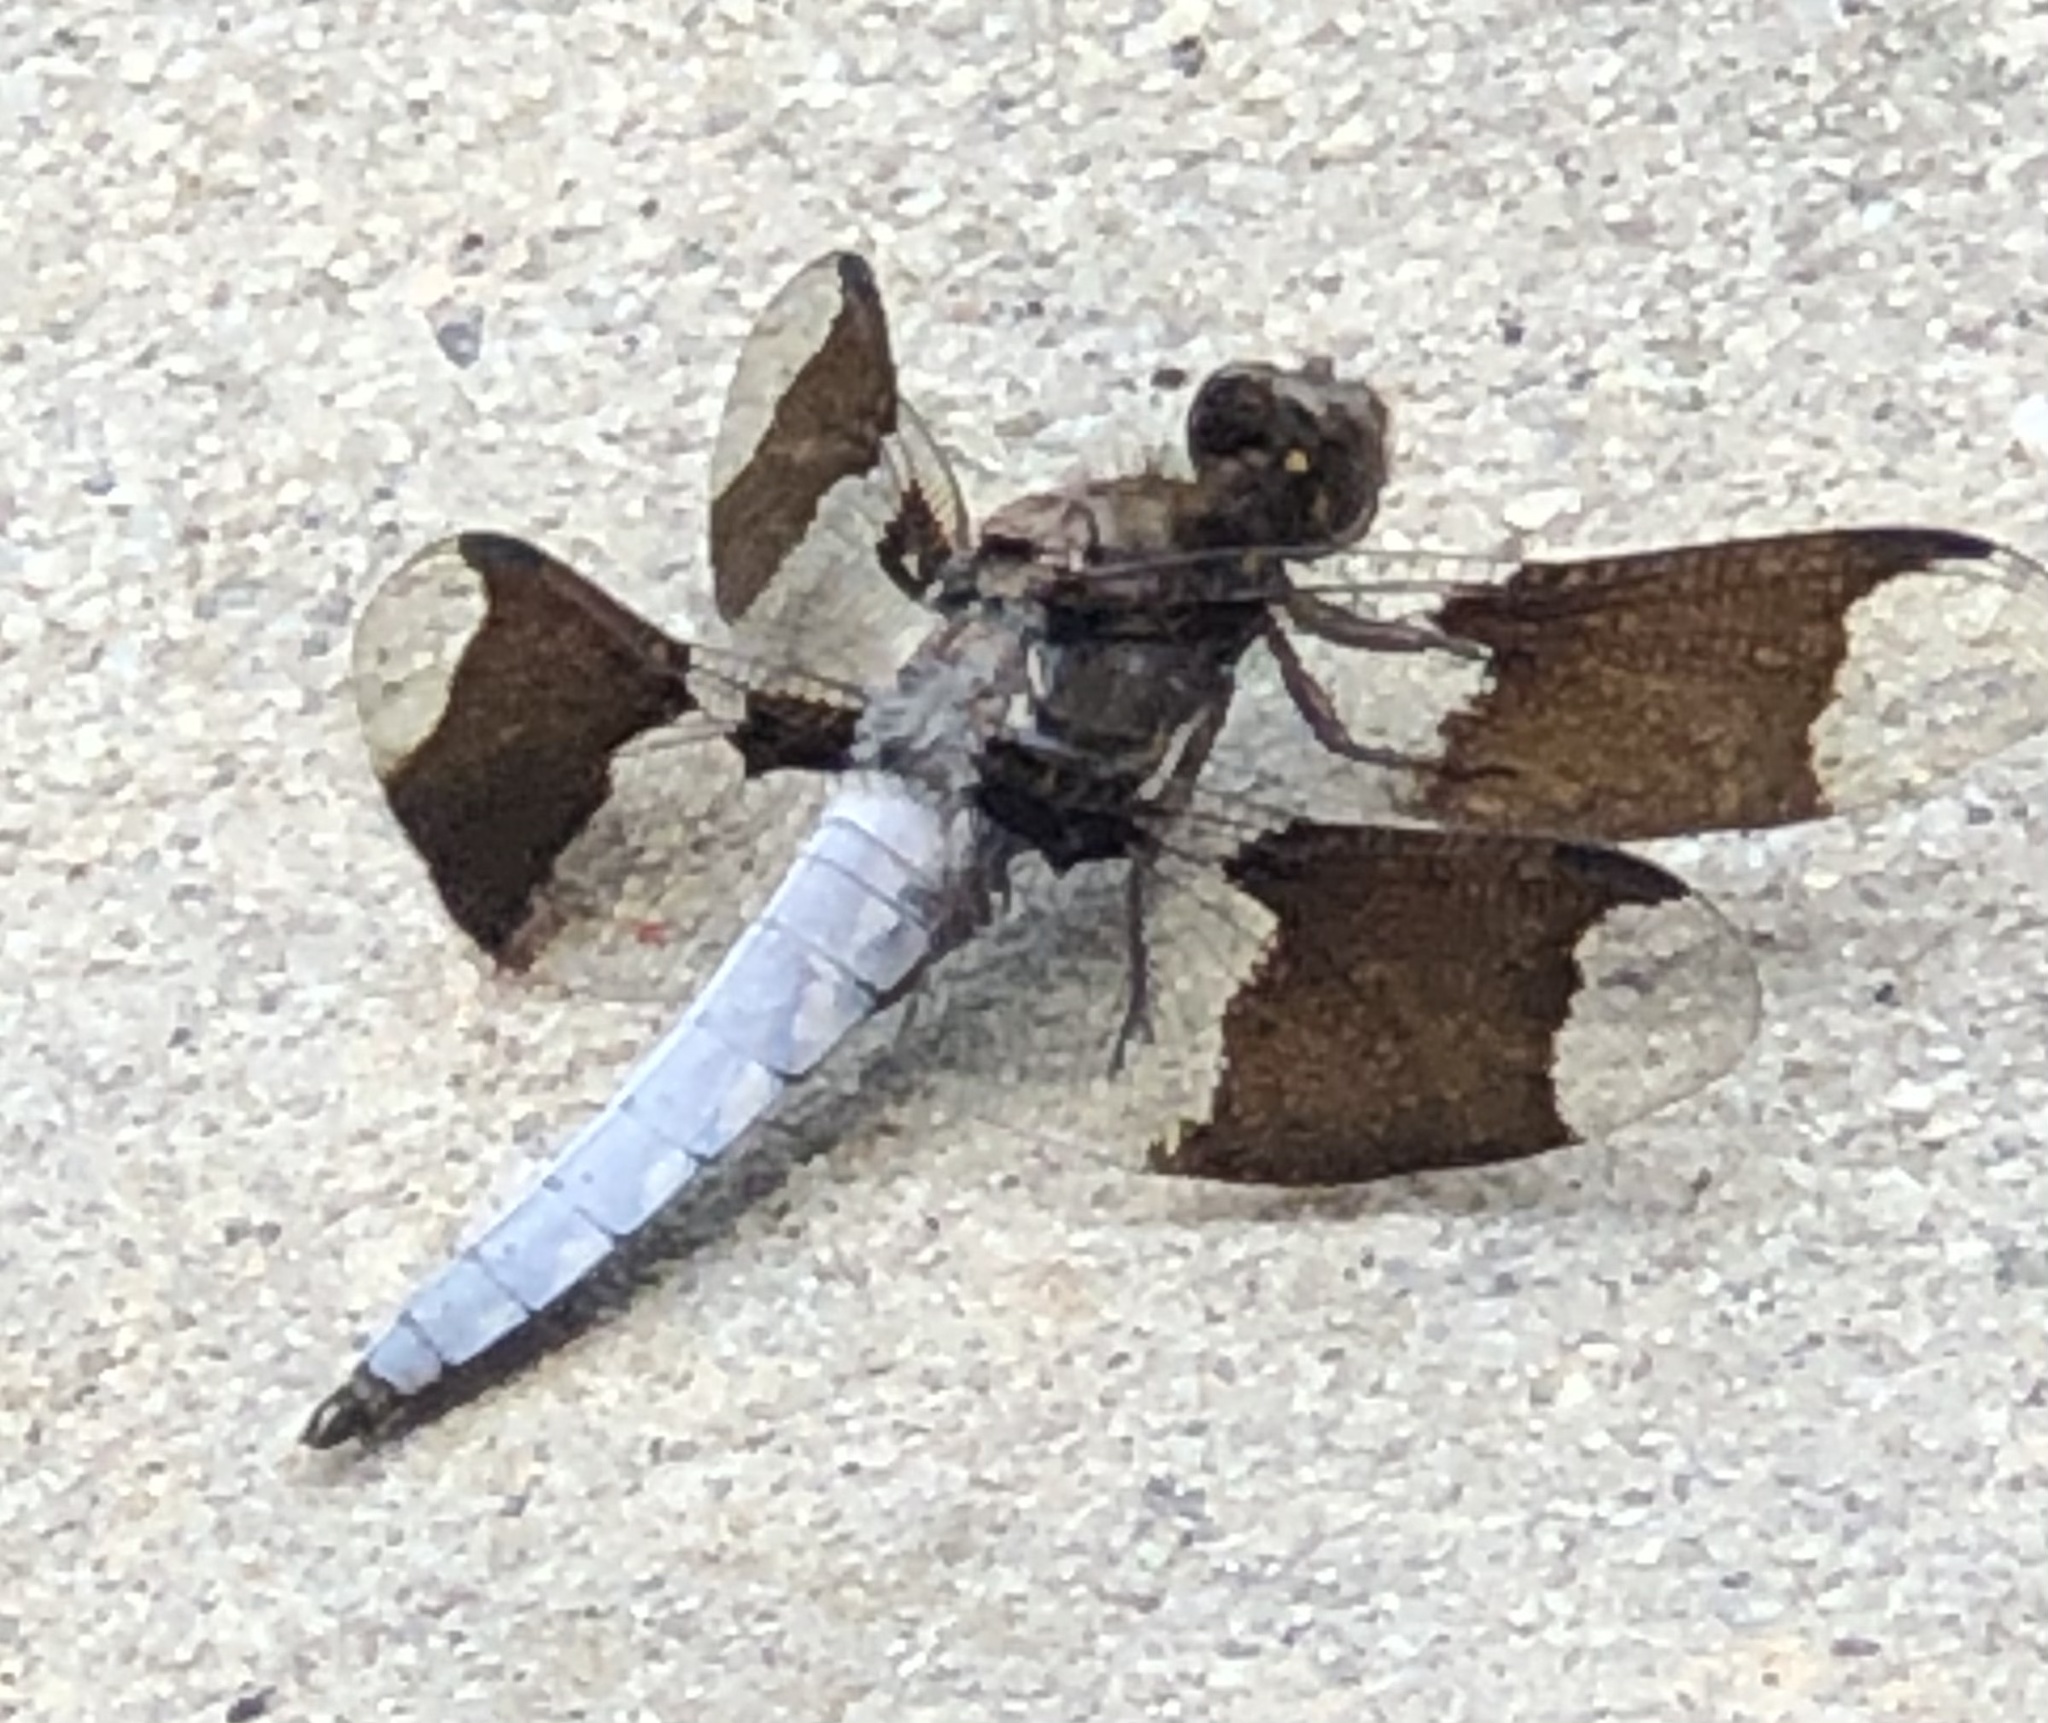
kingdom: Animalia
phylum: Arthropoda
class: Insecta
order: Odonata
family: Libellulidae
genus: Plathemis
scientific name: Plathemis lydia
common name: Common whitetail
